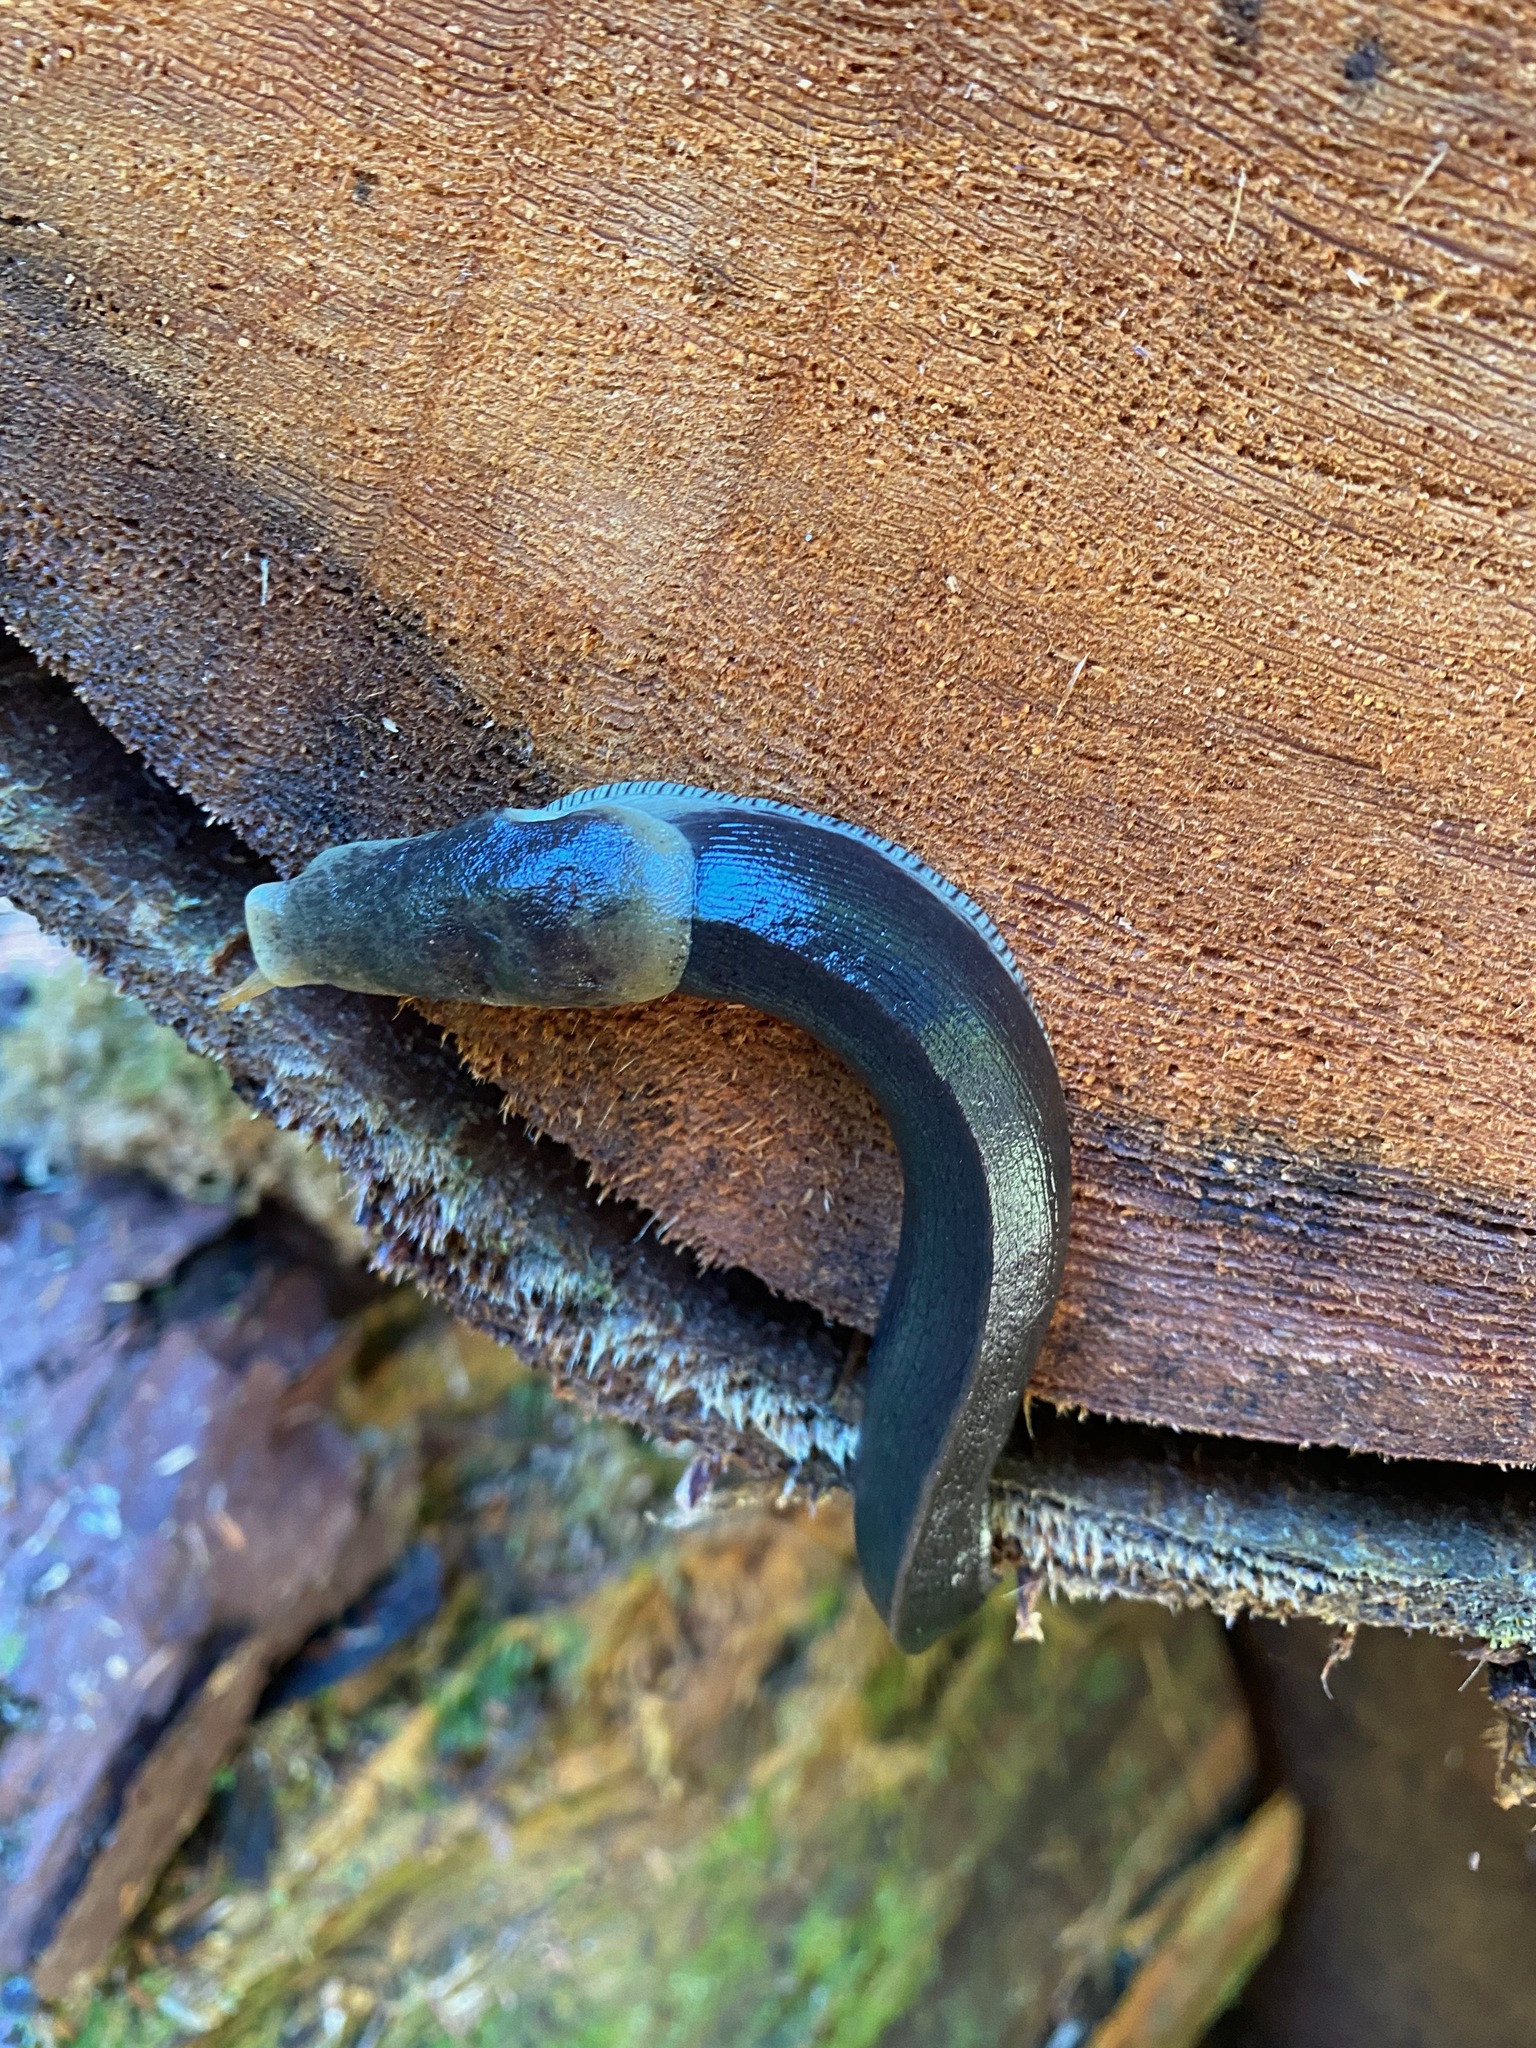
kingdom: Animalia
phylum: Mollusca
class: Gastropoda
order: Stylommatophora
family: Ariolimacidae
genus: Ariolimax
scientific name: Ariolimax columbianus
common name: Pacific banana slug
